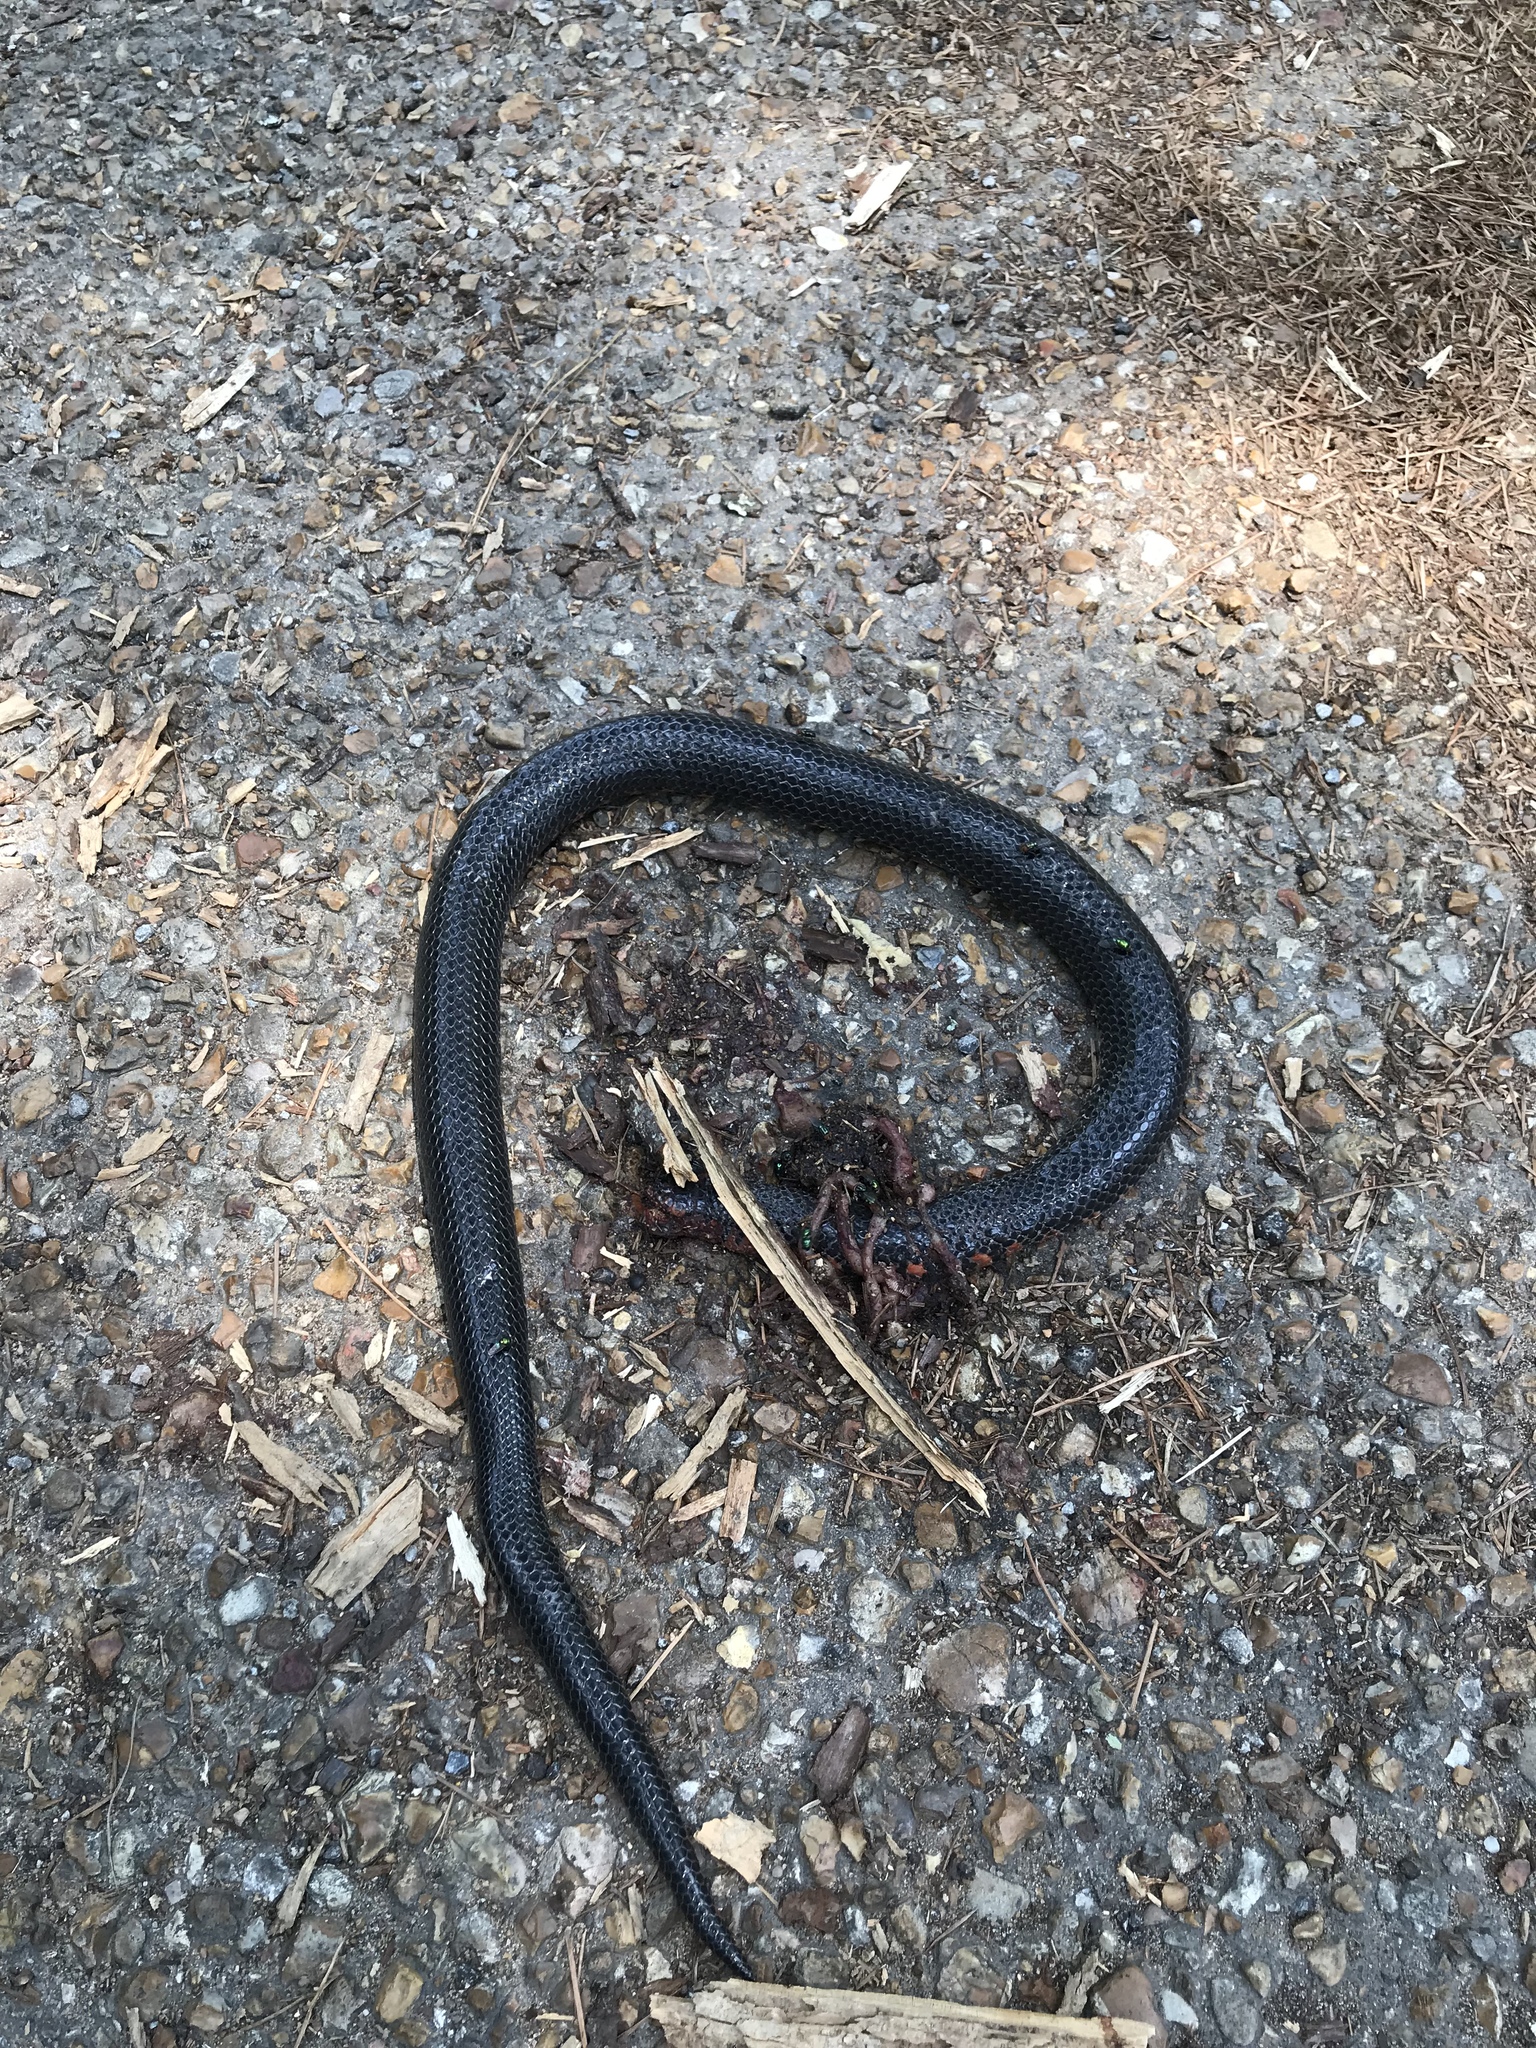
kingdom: Animalia
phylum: Chordata
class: Squamata
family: Colubridae
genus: Farancia
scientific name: Farancia abacura
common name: Mud snake
